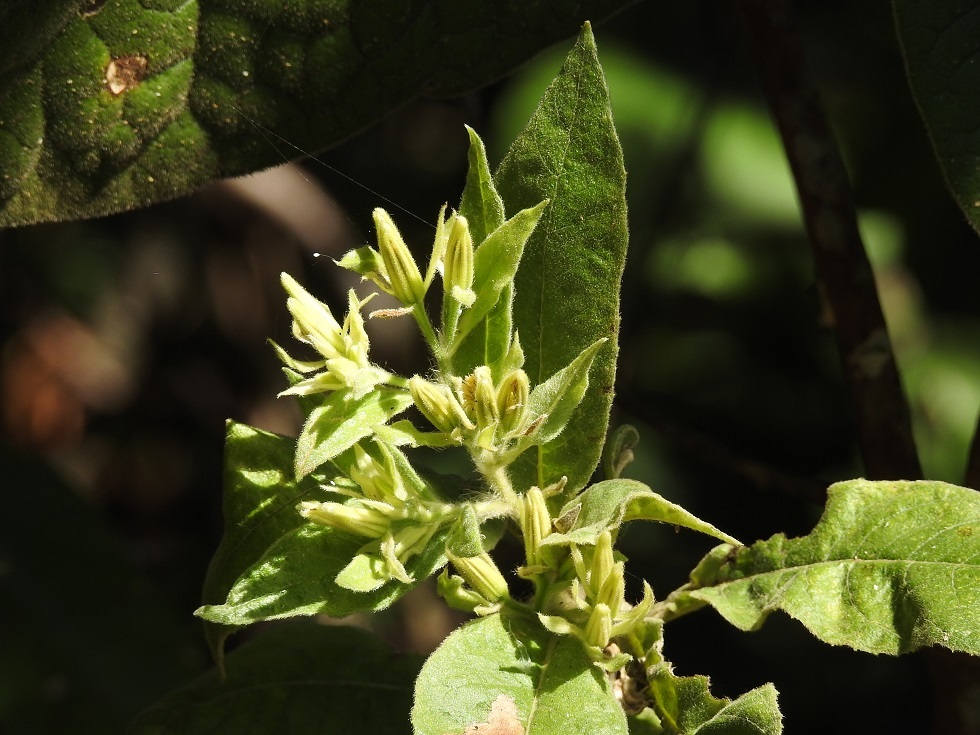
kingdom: Plantae
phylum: Tracheophyta
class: Magnoliopsida
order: Asterales
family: Asteraceae
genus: Trixis
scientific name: Trixis anomala
